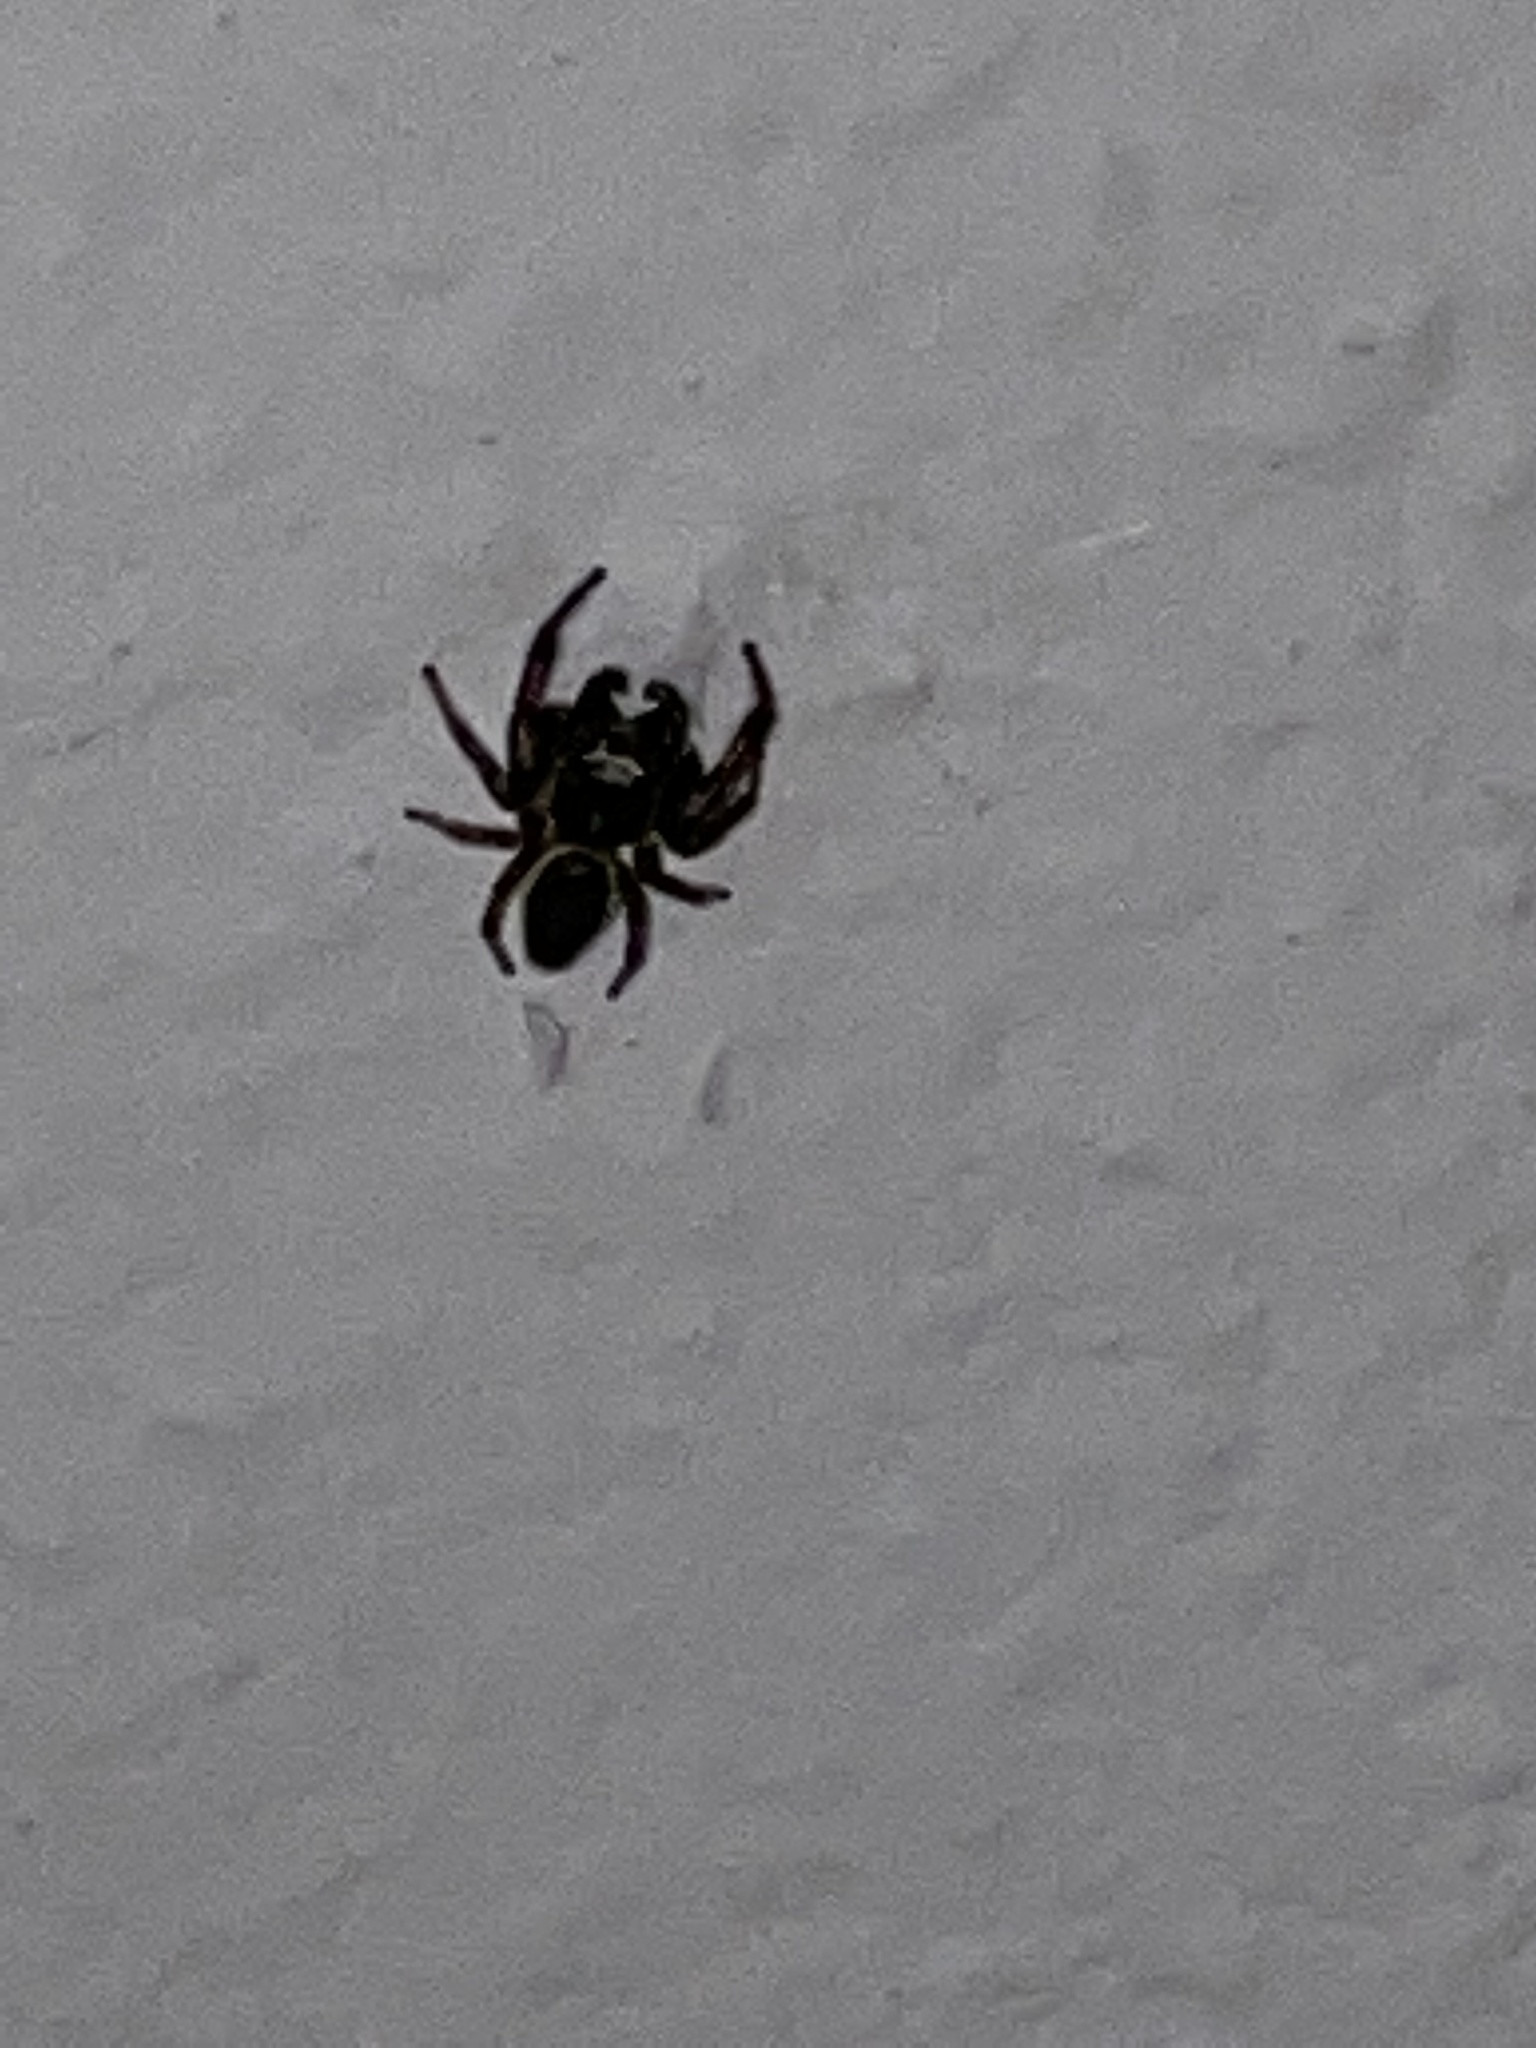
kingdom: Animalia
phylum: Arthropoda
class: Arachnida
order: Araneae
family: Salticidae
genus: Eris
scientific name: Eris militaris
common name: Bronze jumper
